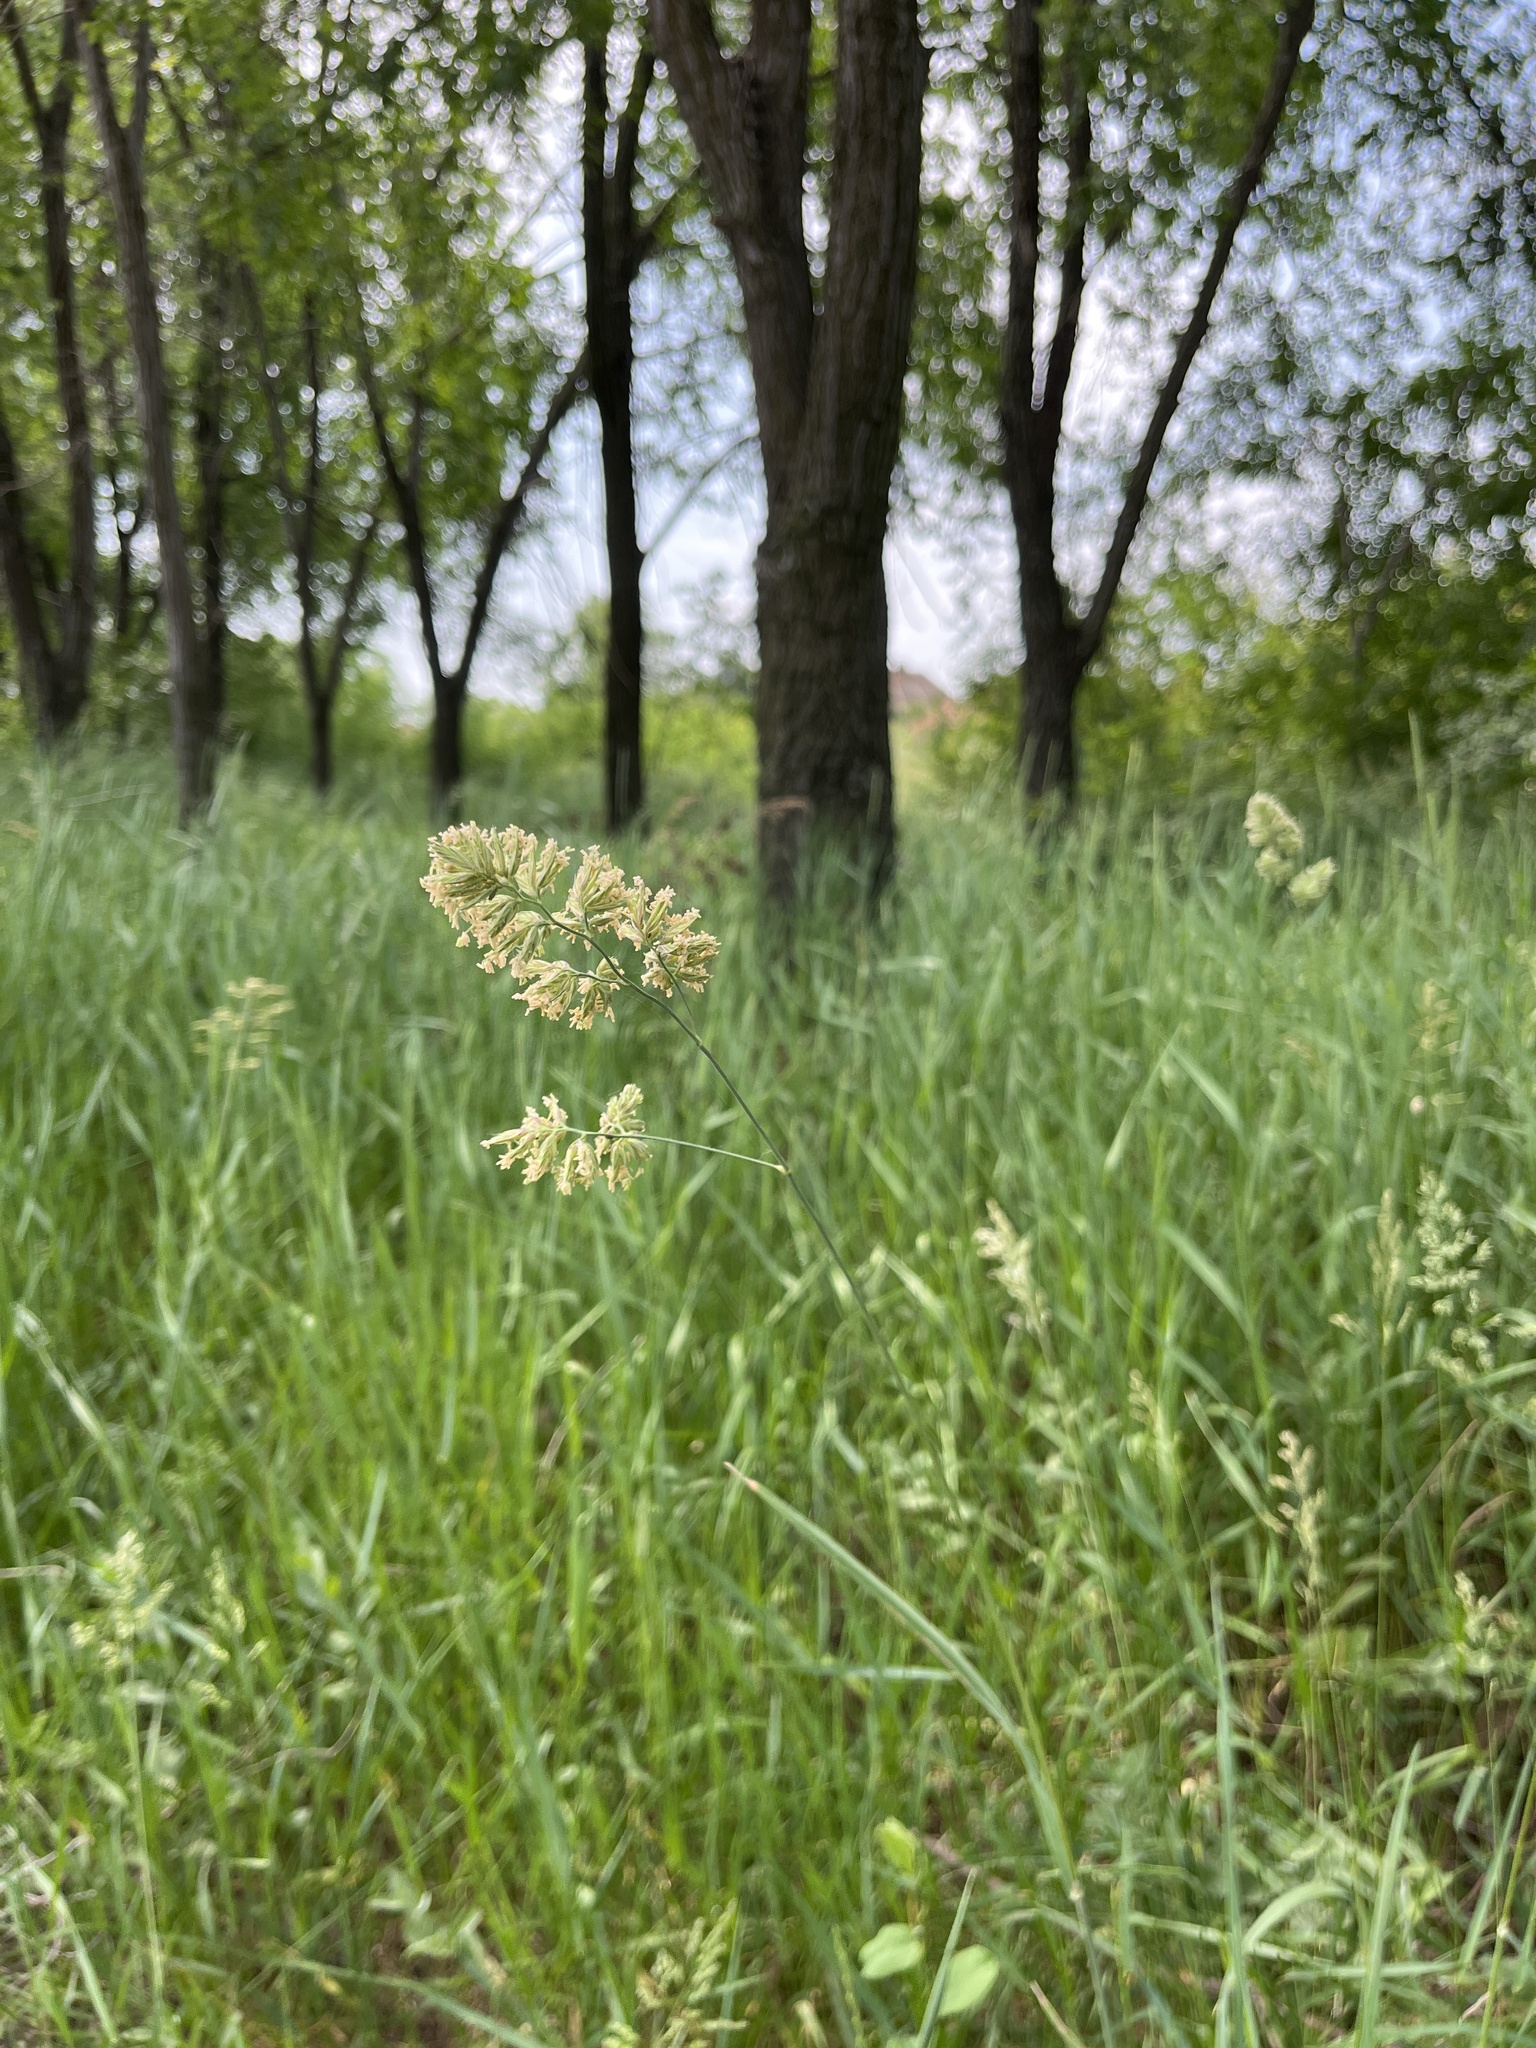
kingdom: Plantae
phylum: Tracheophyta
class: Liliopsida
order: Poales
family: Poaceae
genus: Dactylis
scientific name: Dactylis glomerata
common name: Orchardgrass
